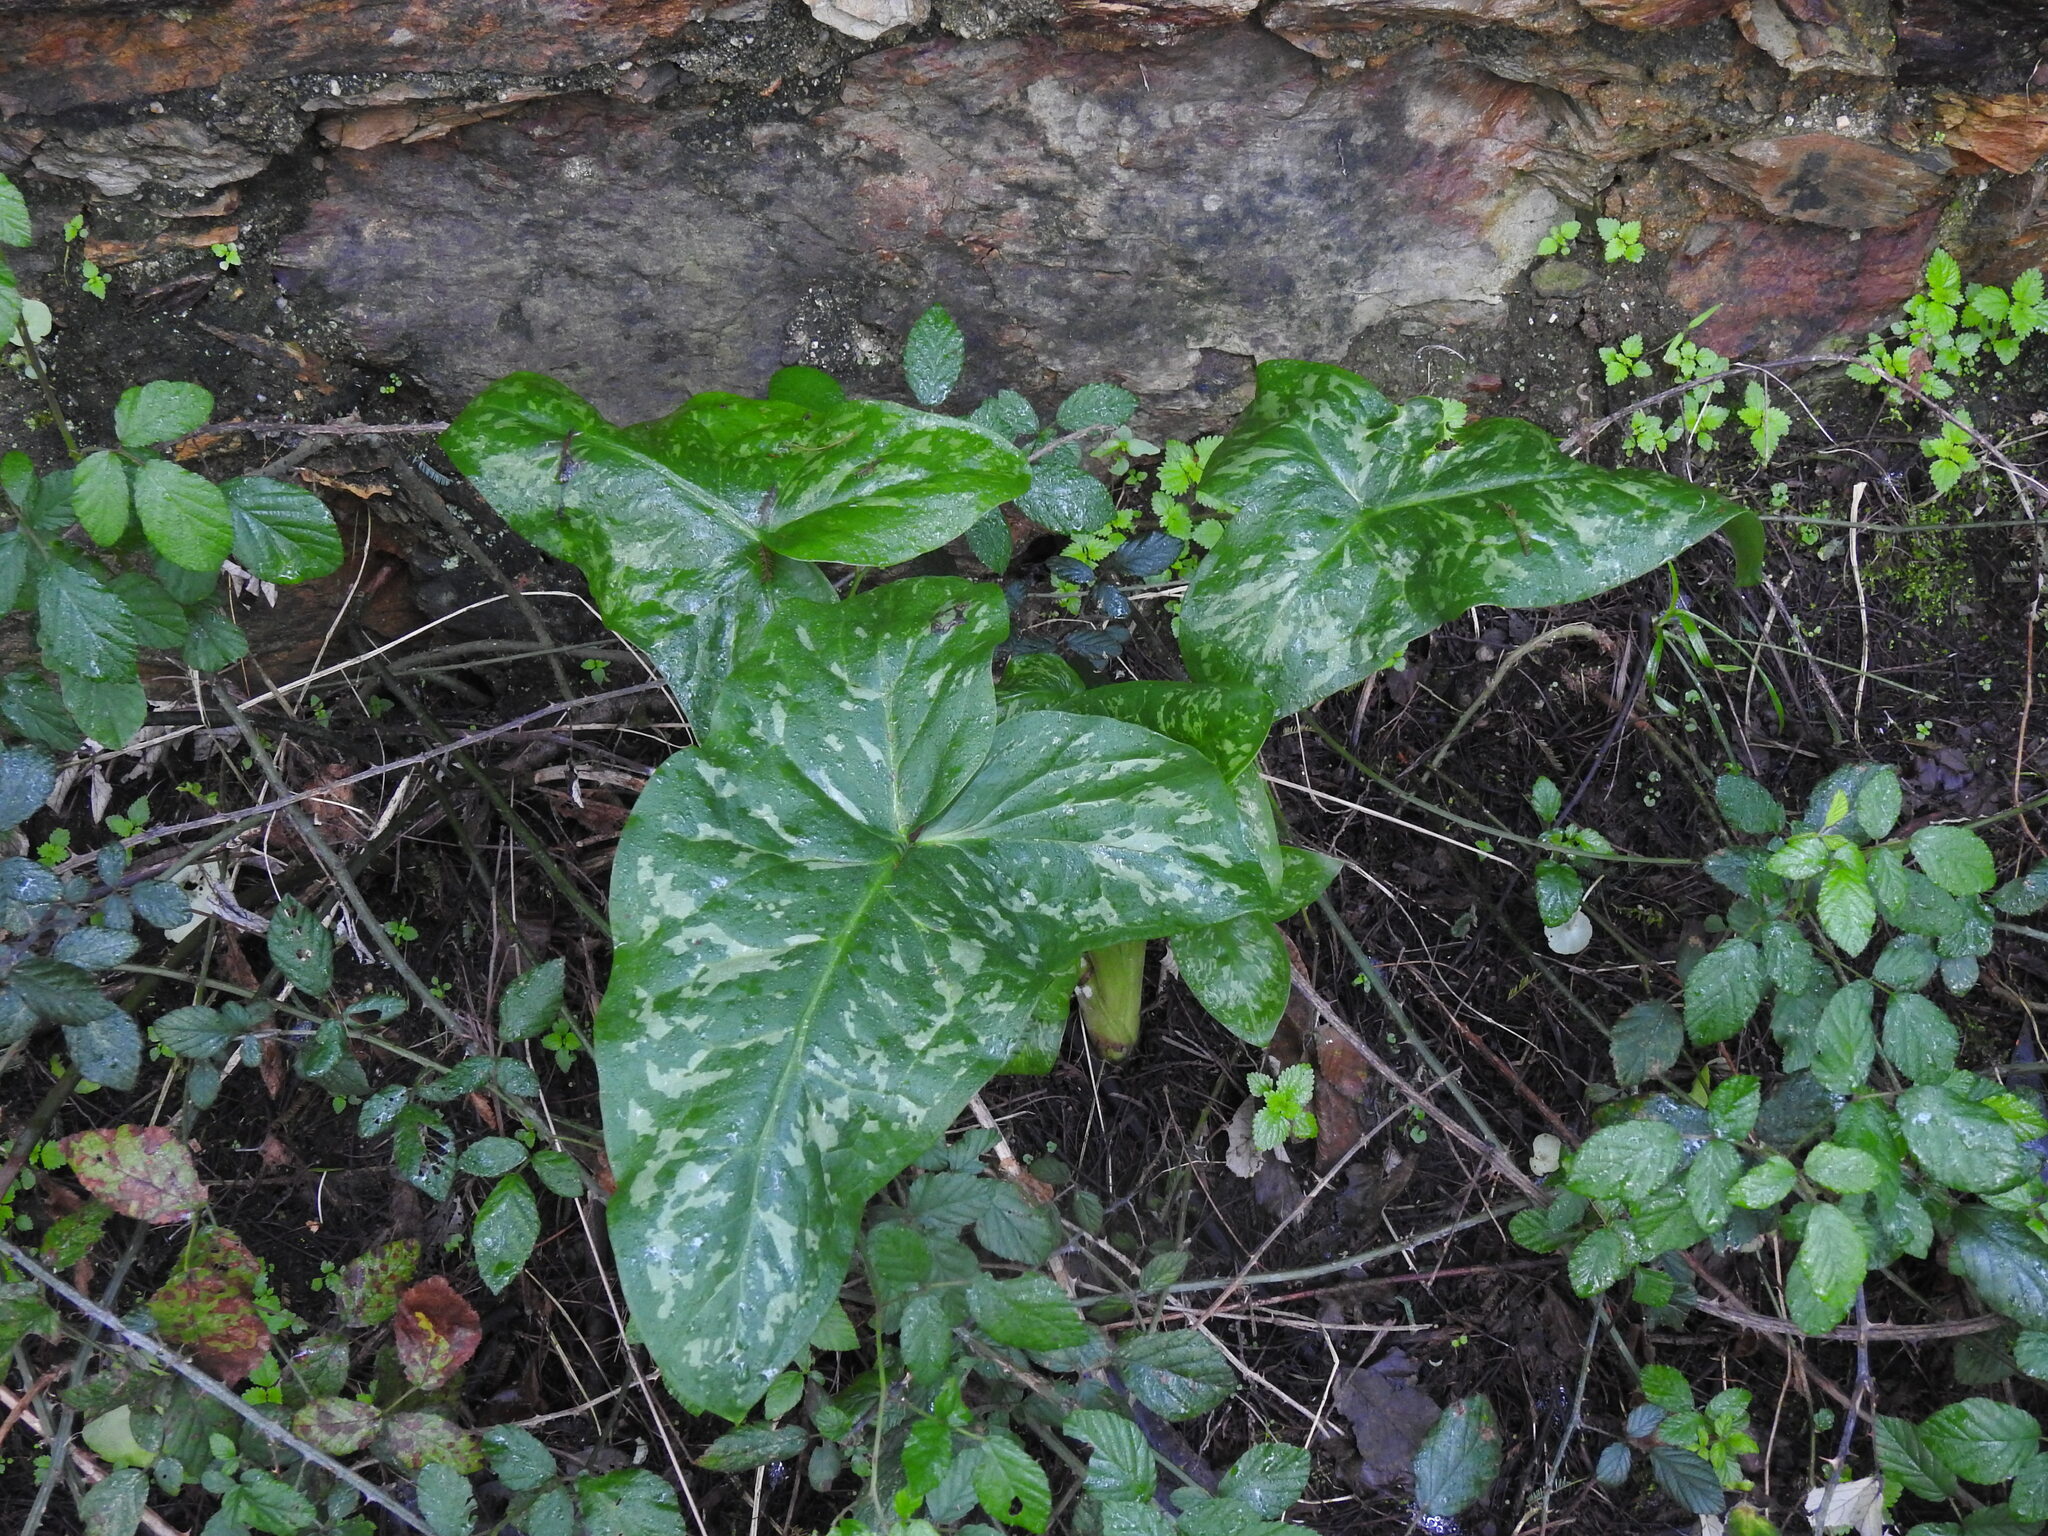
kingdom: Plantae
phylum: Tracheophyta
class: Liliopsida
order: Alismatales
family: Araceae
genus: Arum
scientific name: Arum italicum
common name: Italian lords-and-ladies
